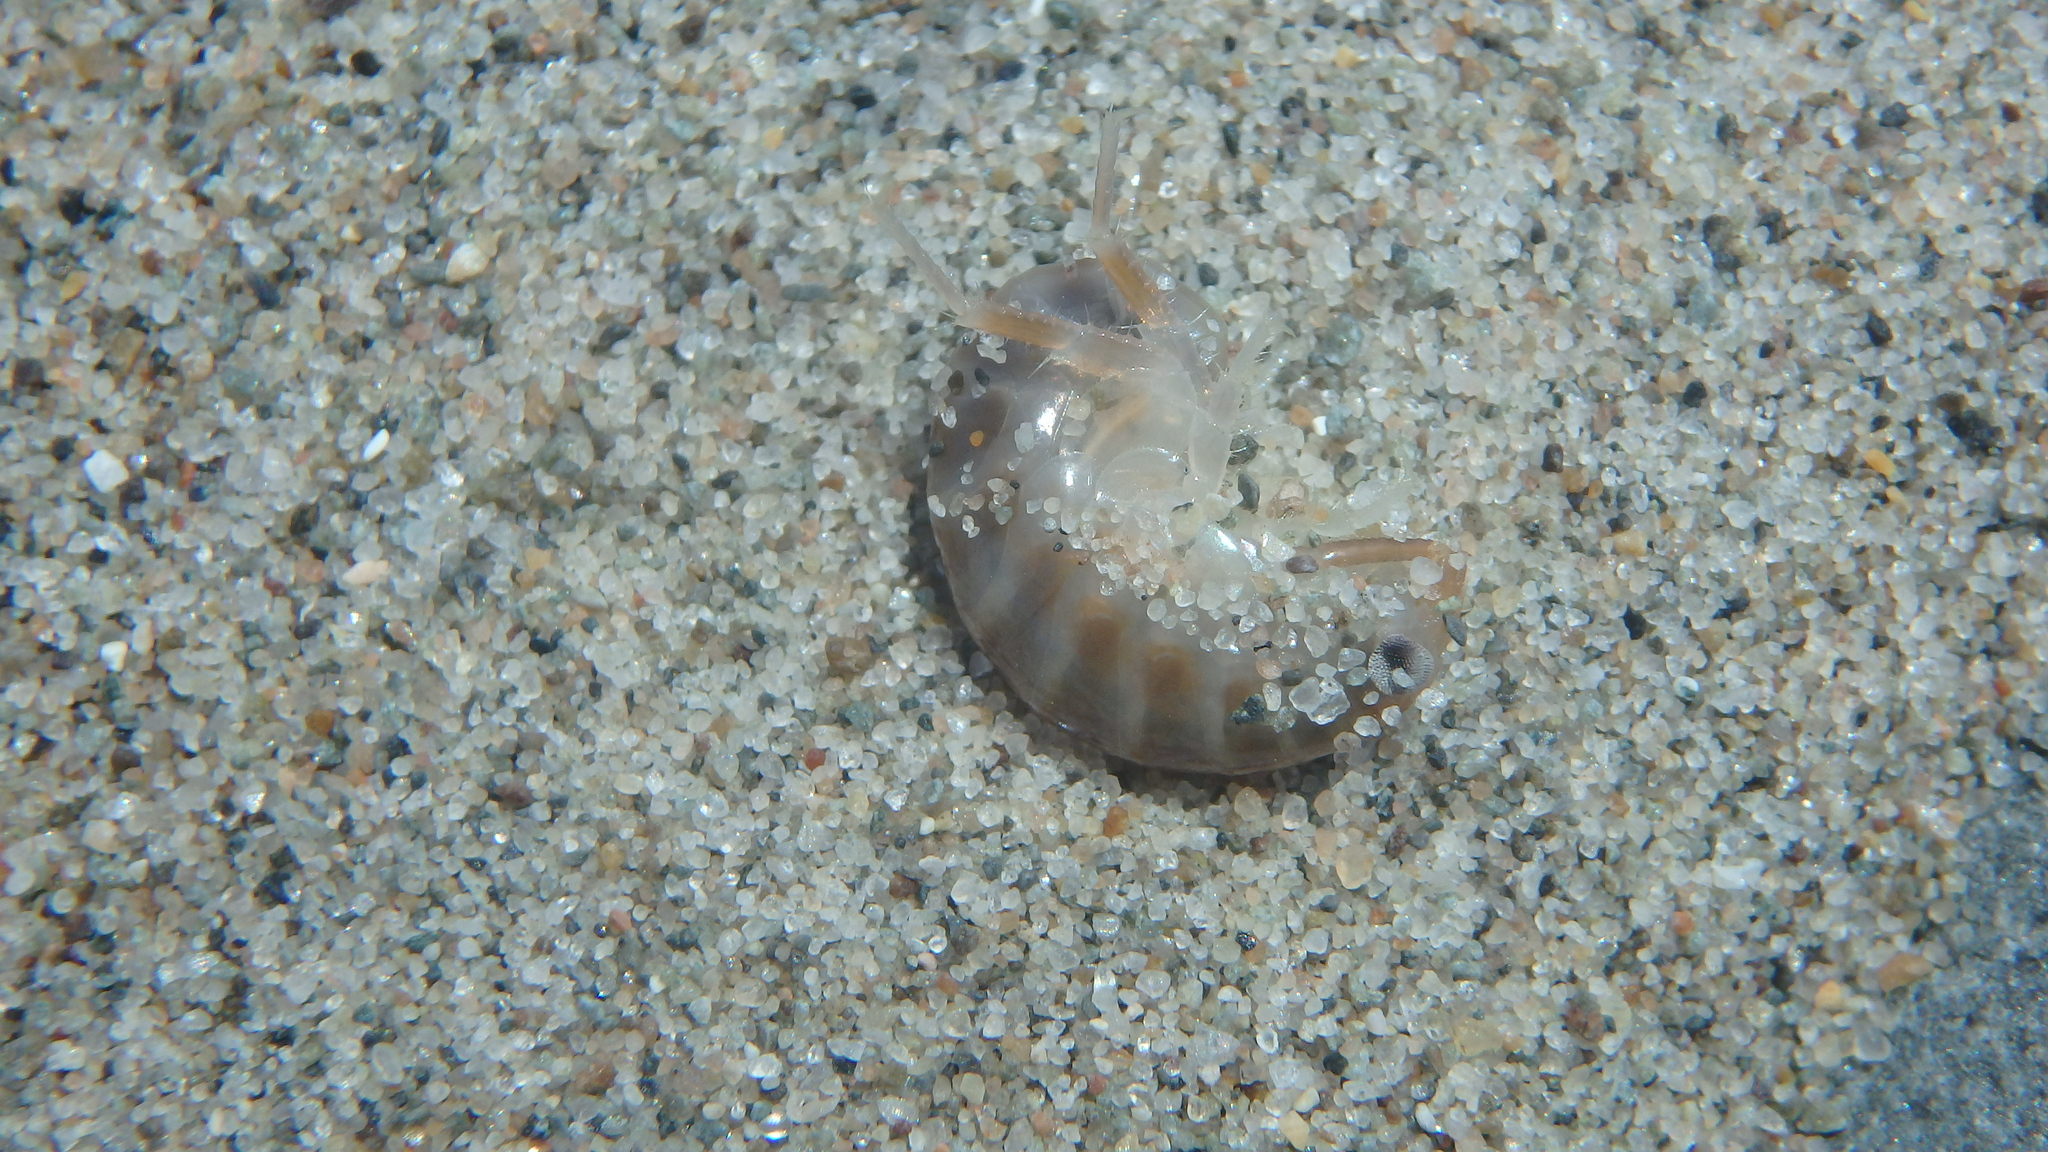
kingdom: Animalia
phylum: Arthropoda
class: Malacostraca
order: Amphipoda
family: Talitridae
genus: Americorchestia
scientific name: Americorchestia megalophthalma
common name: Northern big-eyed sandhopper
